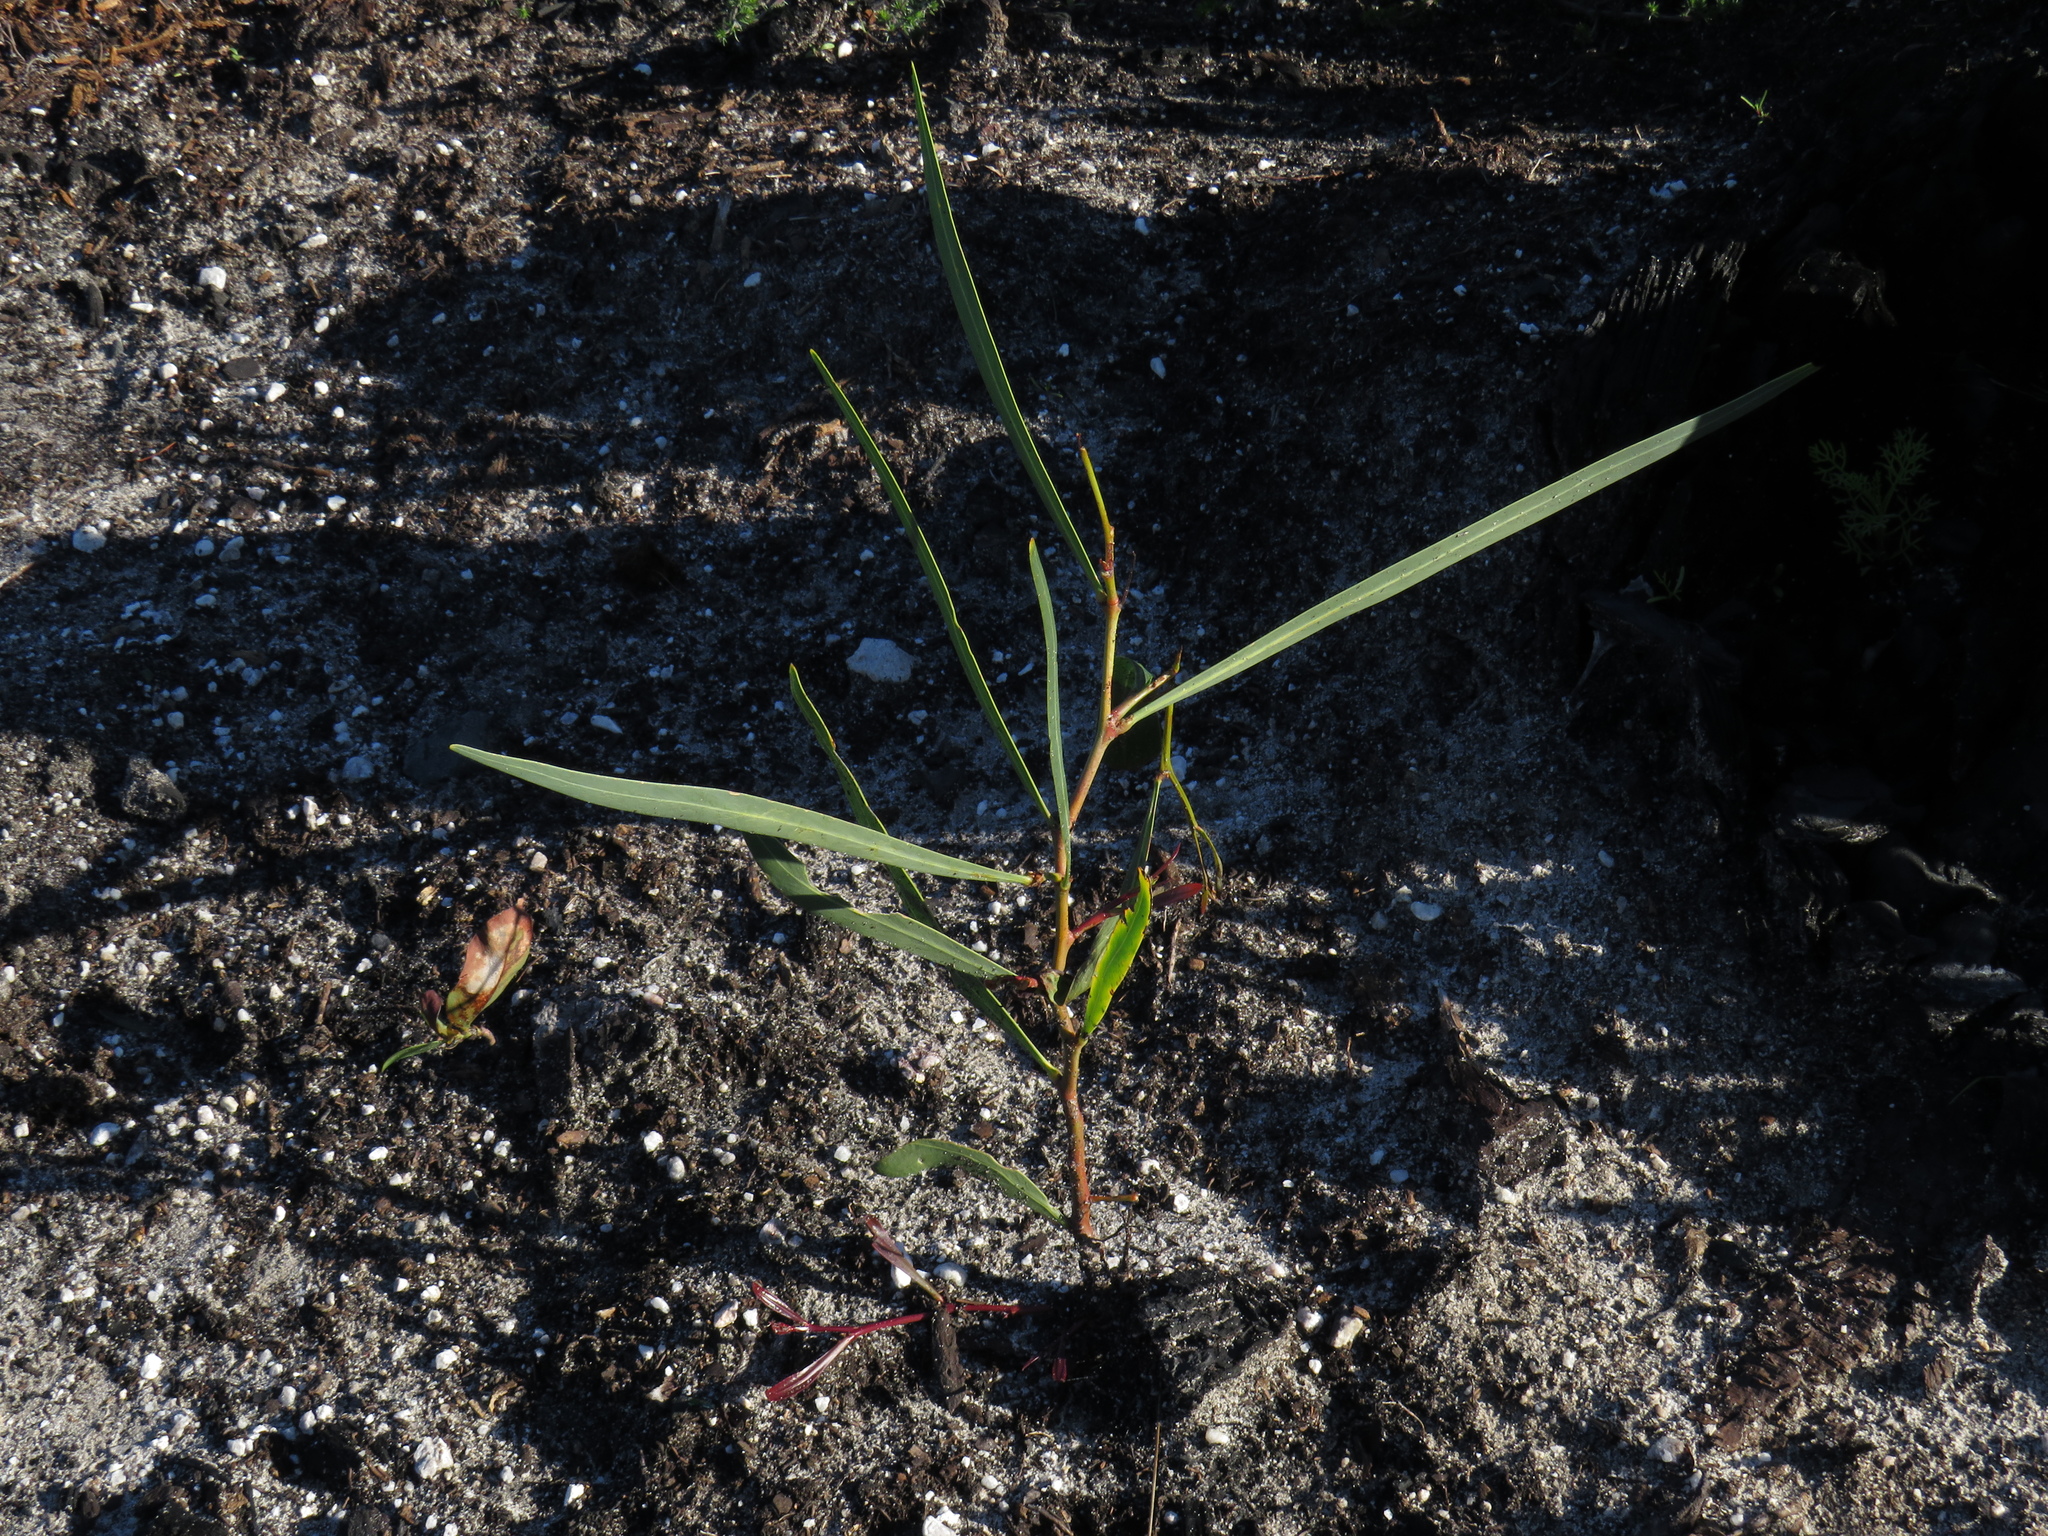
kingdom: Plantae
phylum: Tracheophyta
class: Magnoliopsida
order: Fabales
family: Fabaceae
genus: Acacia
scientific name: Acacia saligna
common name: Orange wattle
